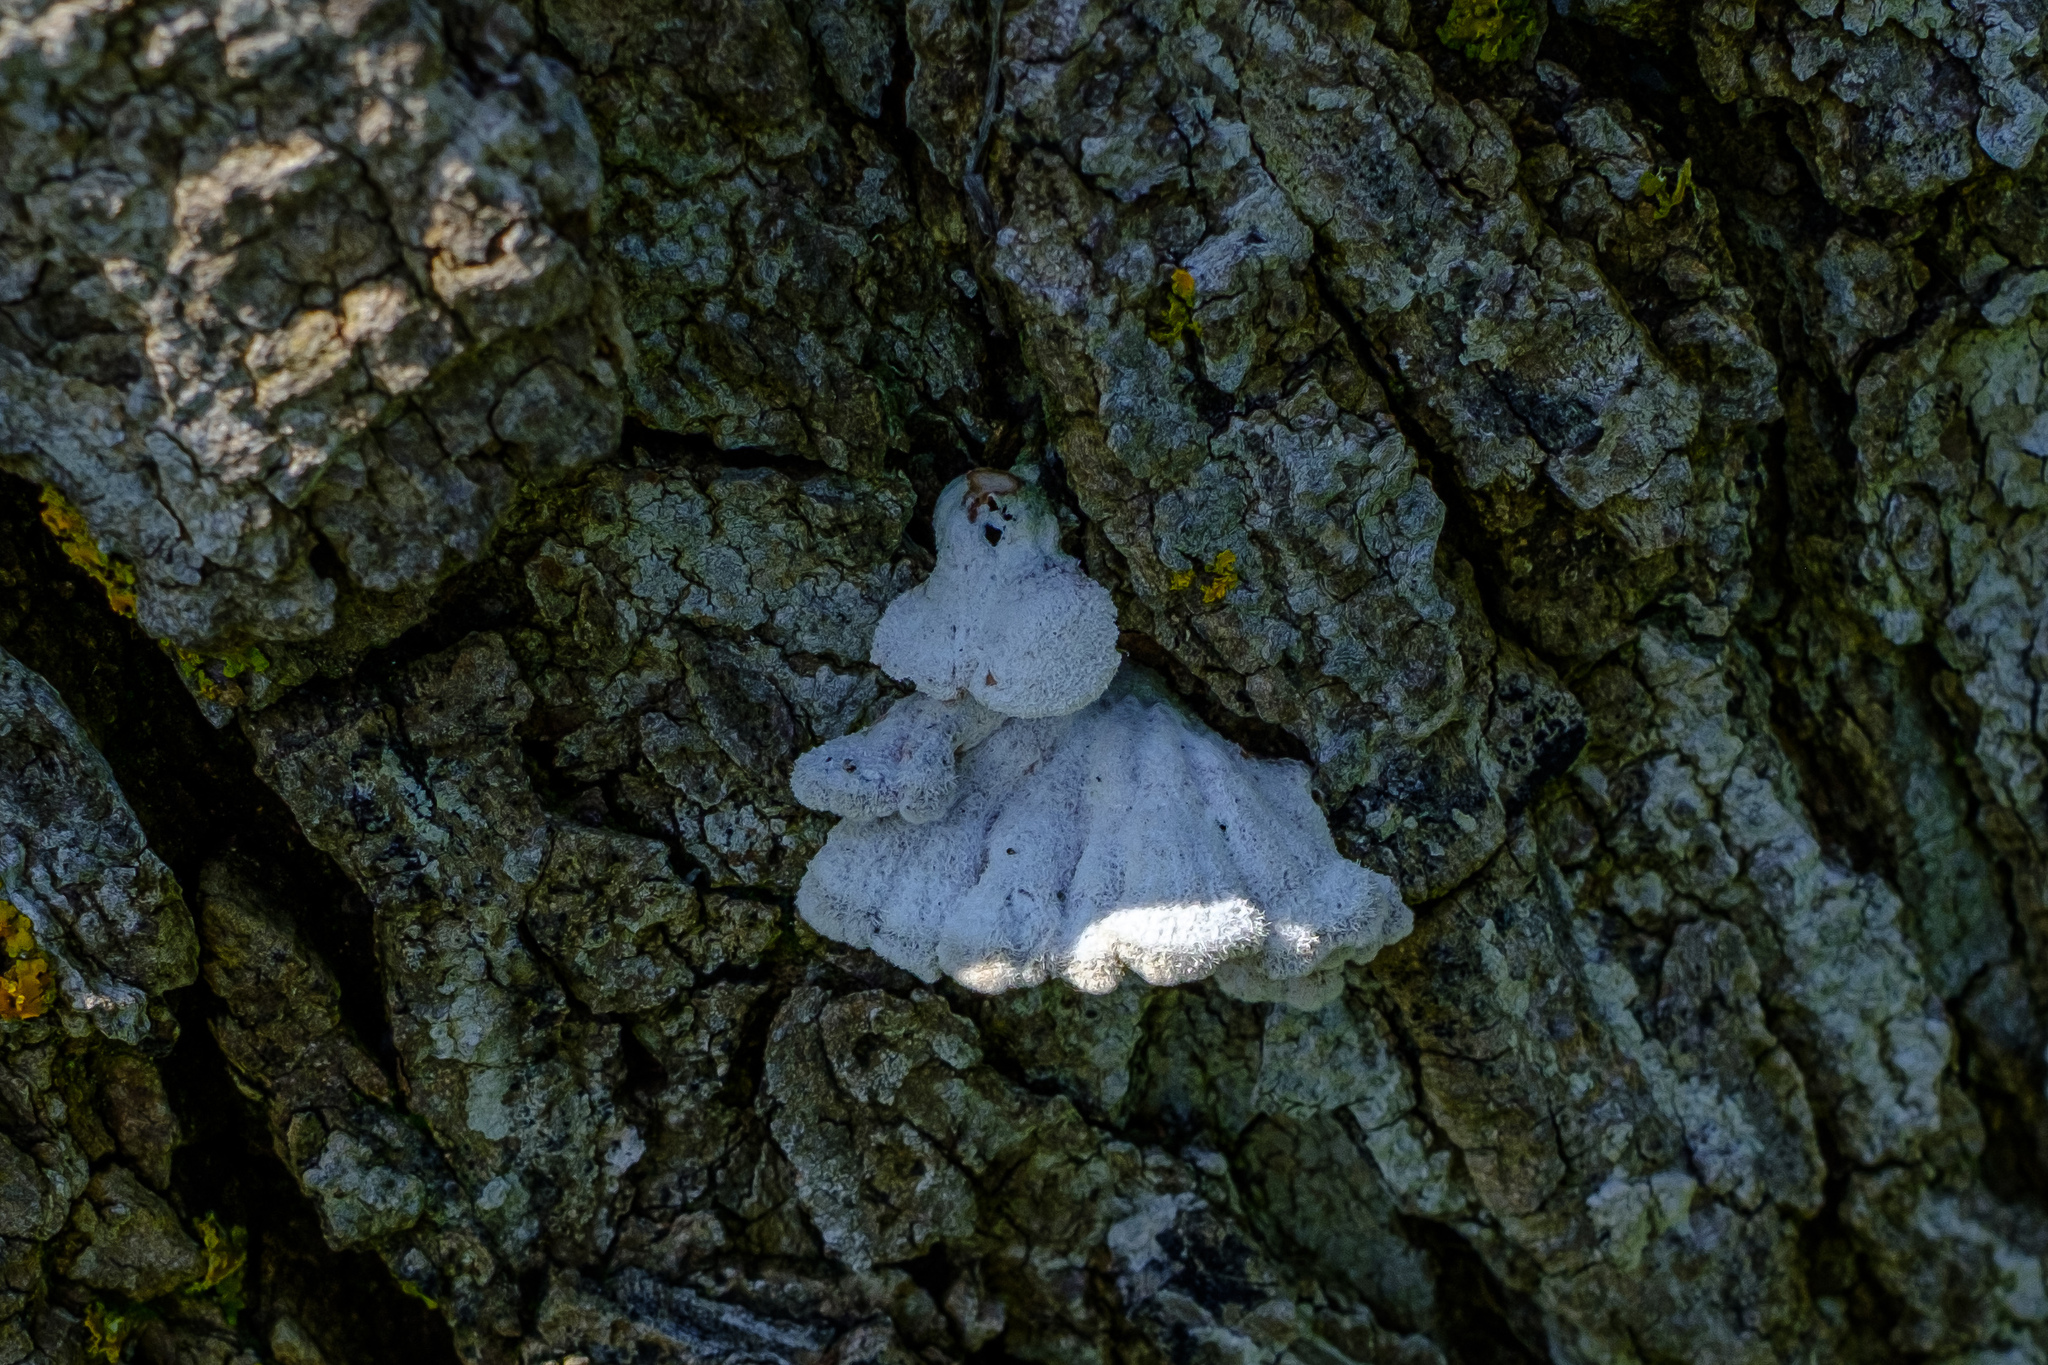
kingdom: Fungi
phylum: Basidiomycota
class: Agaricomycetes
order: Agaricales
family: Schizophyllaceae
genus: Schizophyllum
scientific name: Schizophyllum commune
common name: Common porecrust
